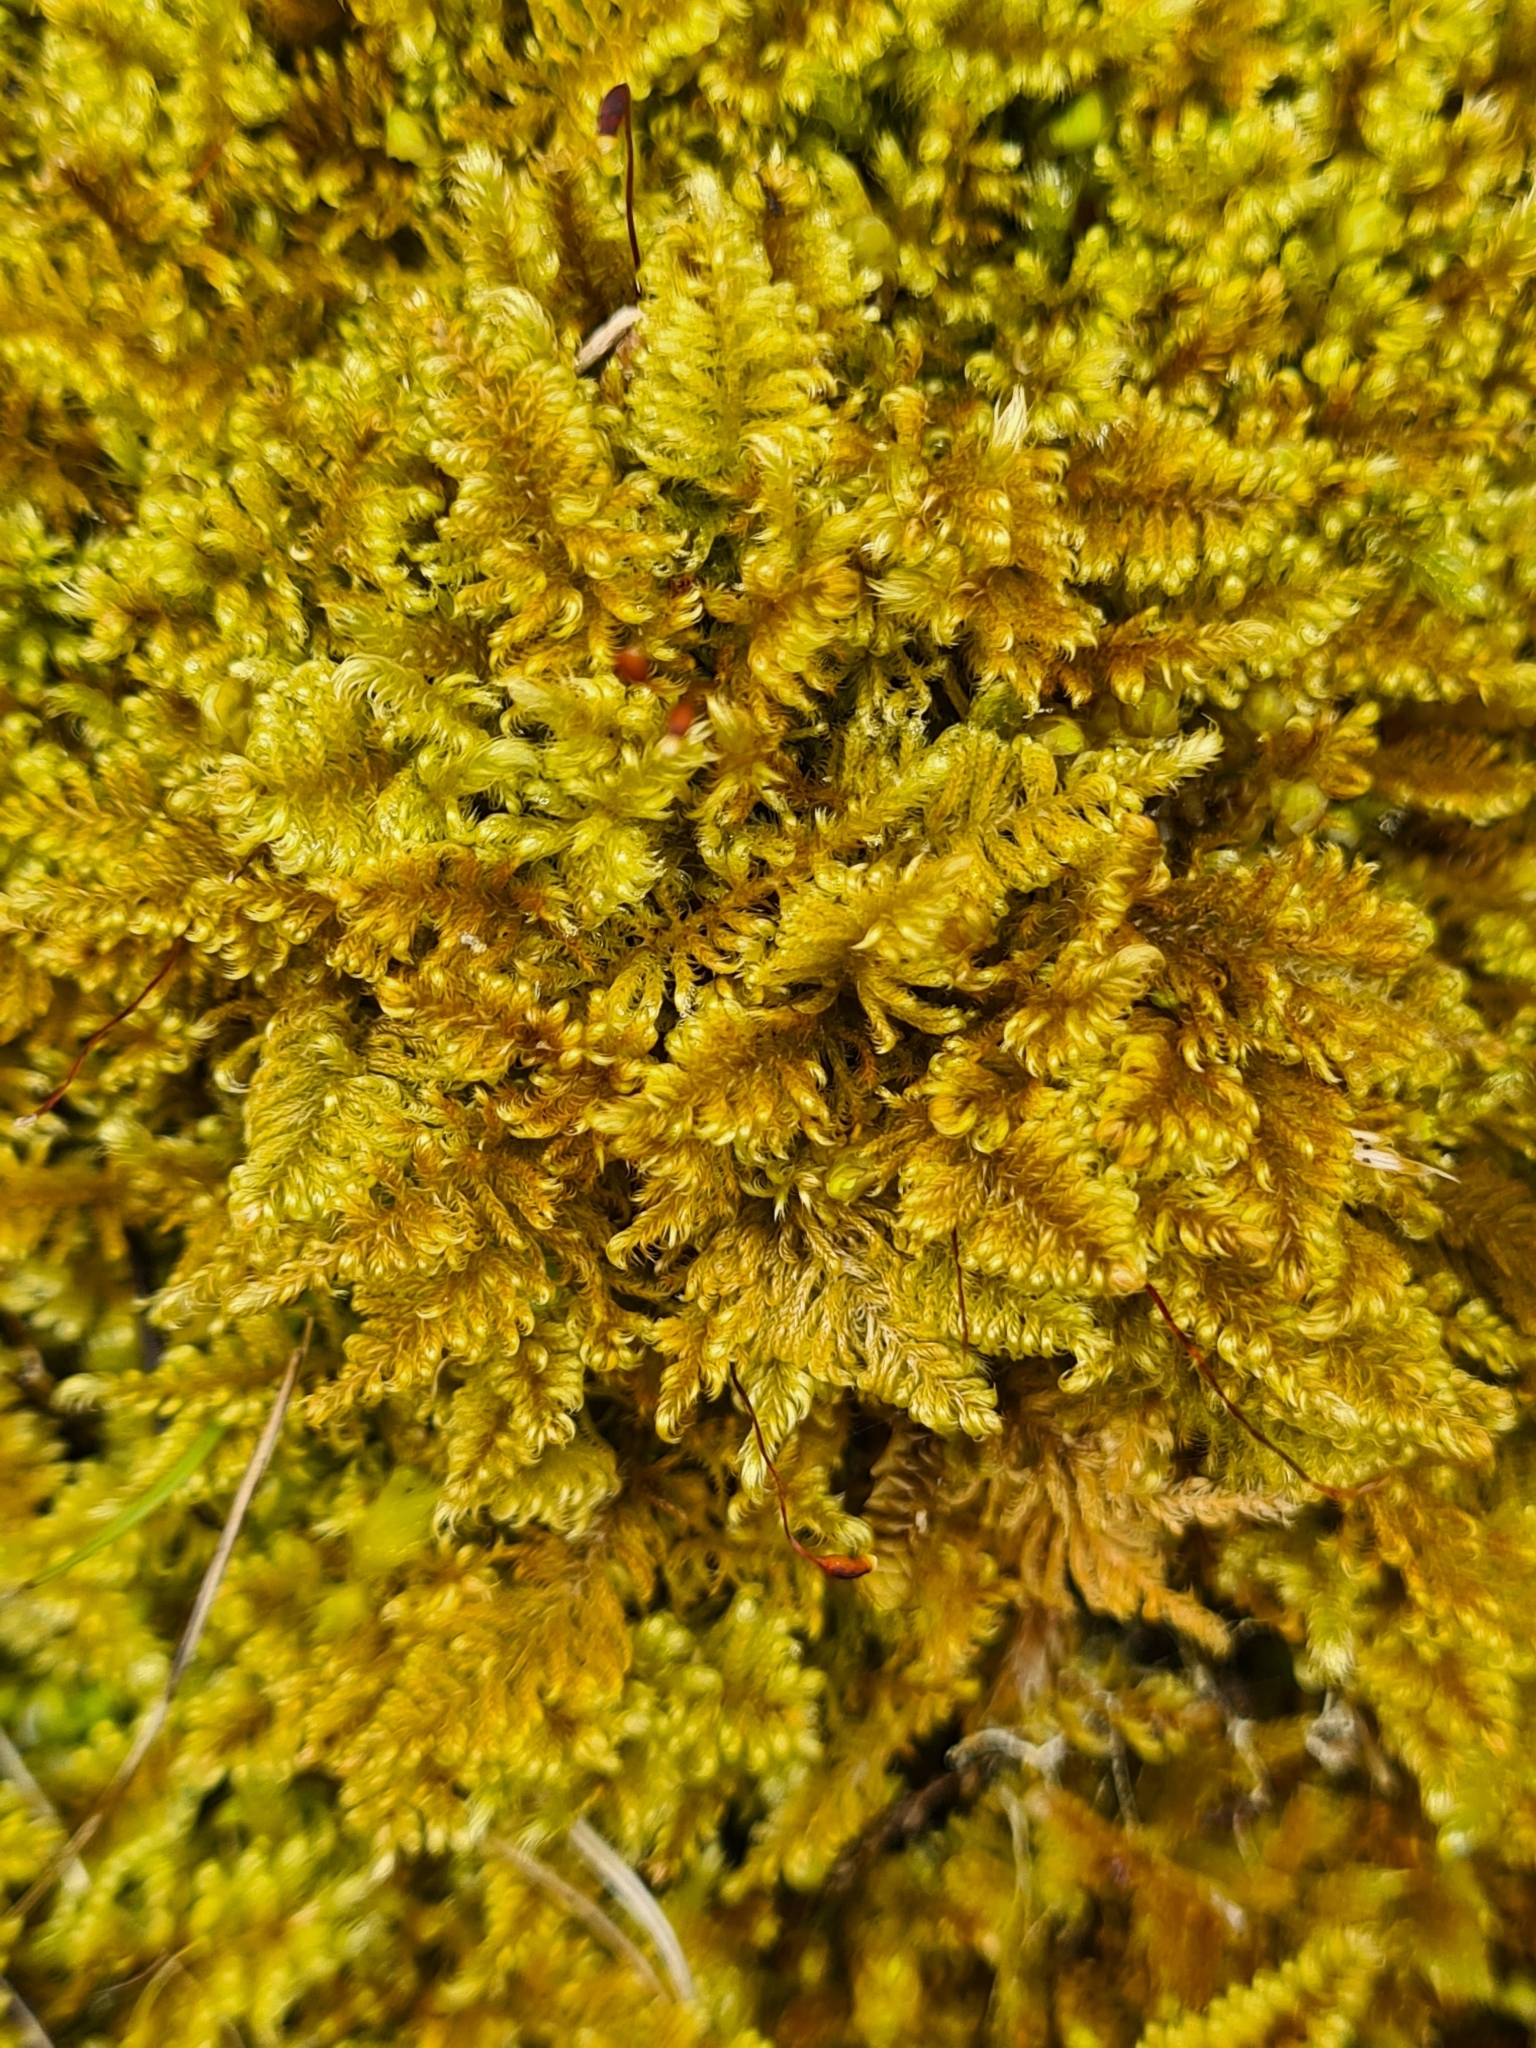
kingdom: Plantae
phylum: Bryophyta
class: Bryopsida
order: Hypnales
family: Myuriaceae
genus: Ctenidium
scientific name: Ctenidium molluscum
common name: Chalk comb-moss
